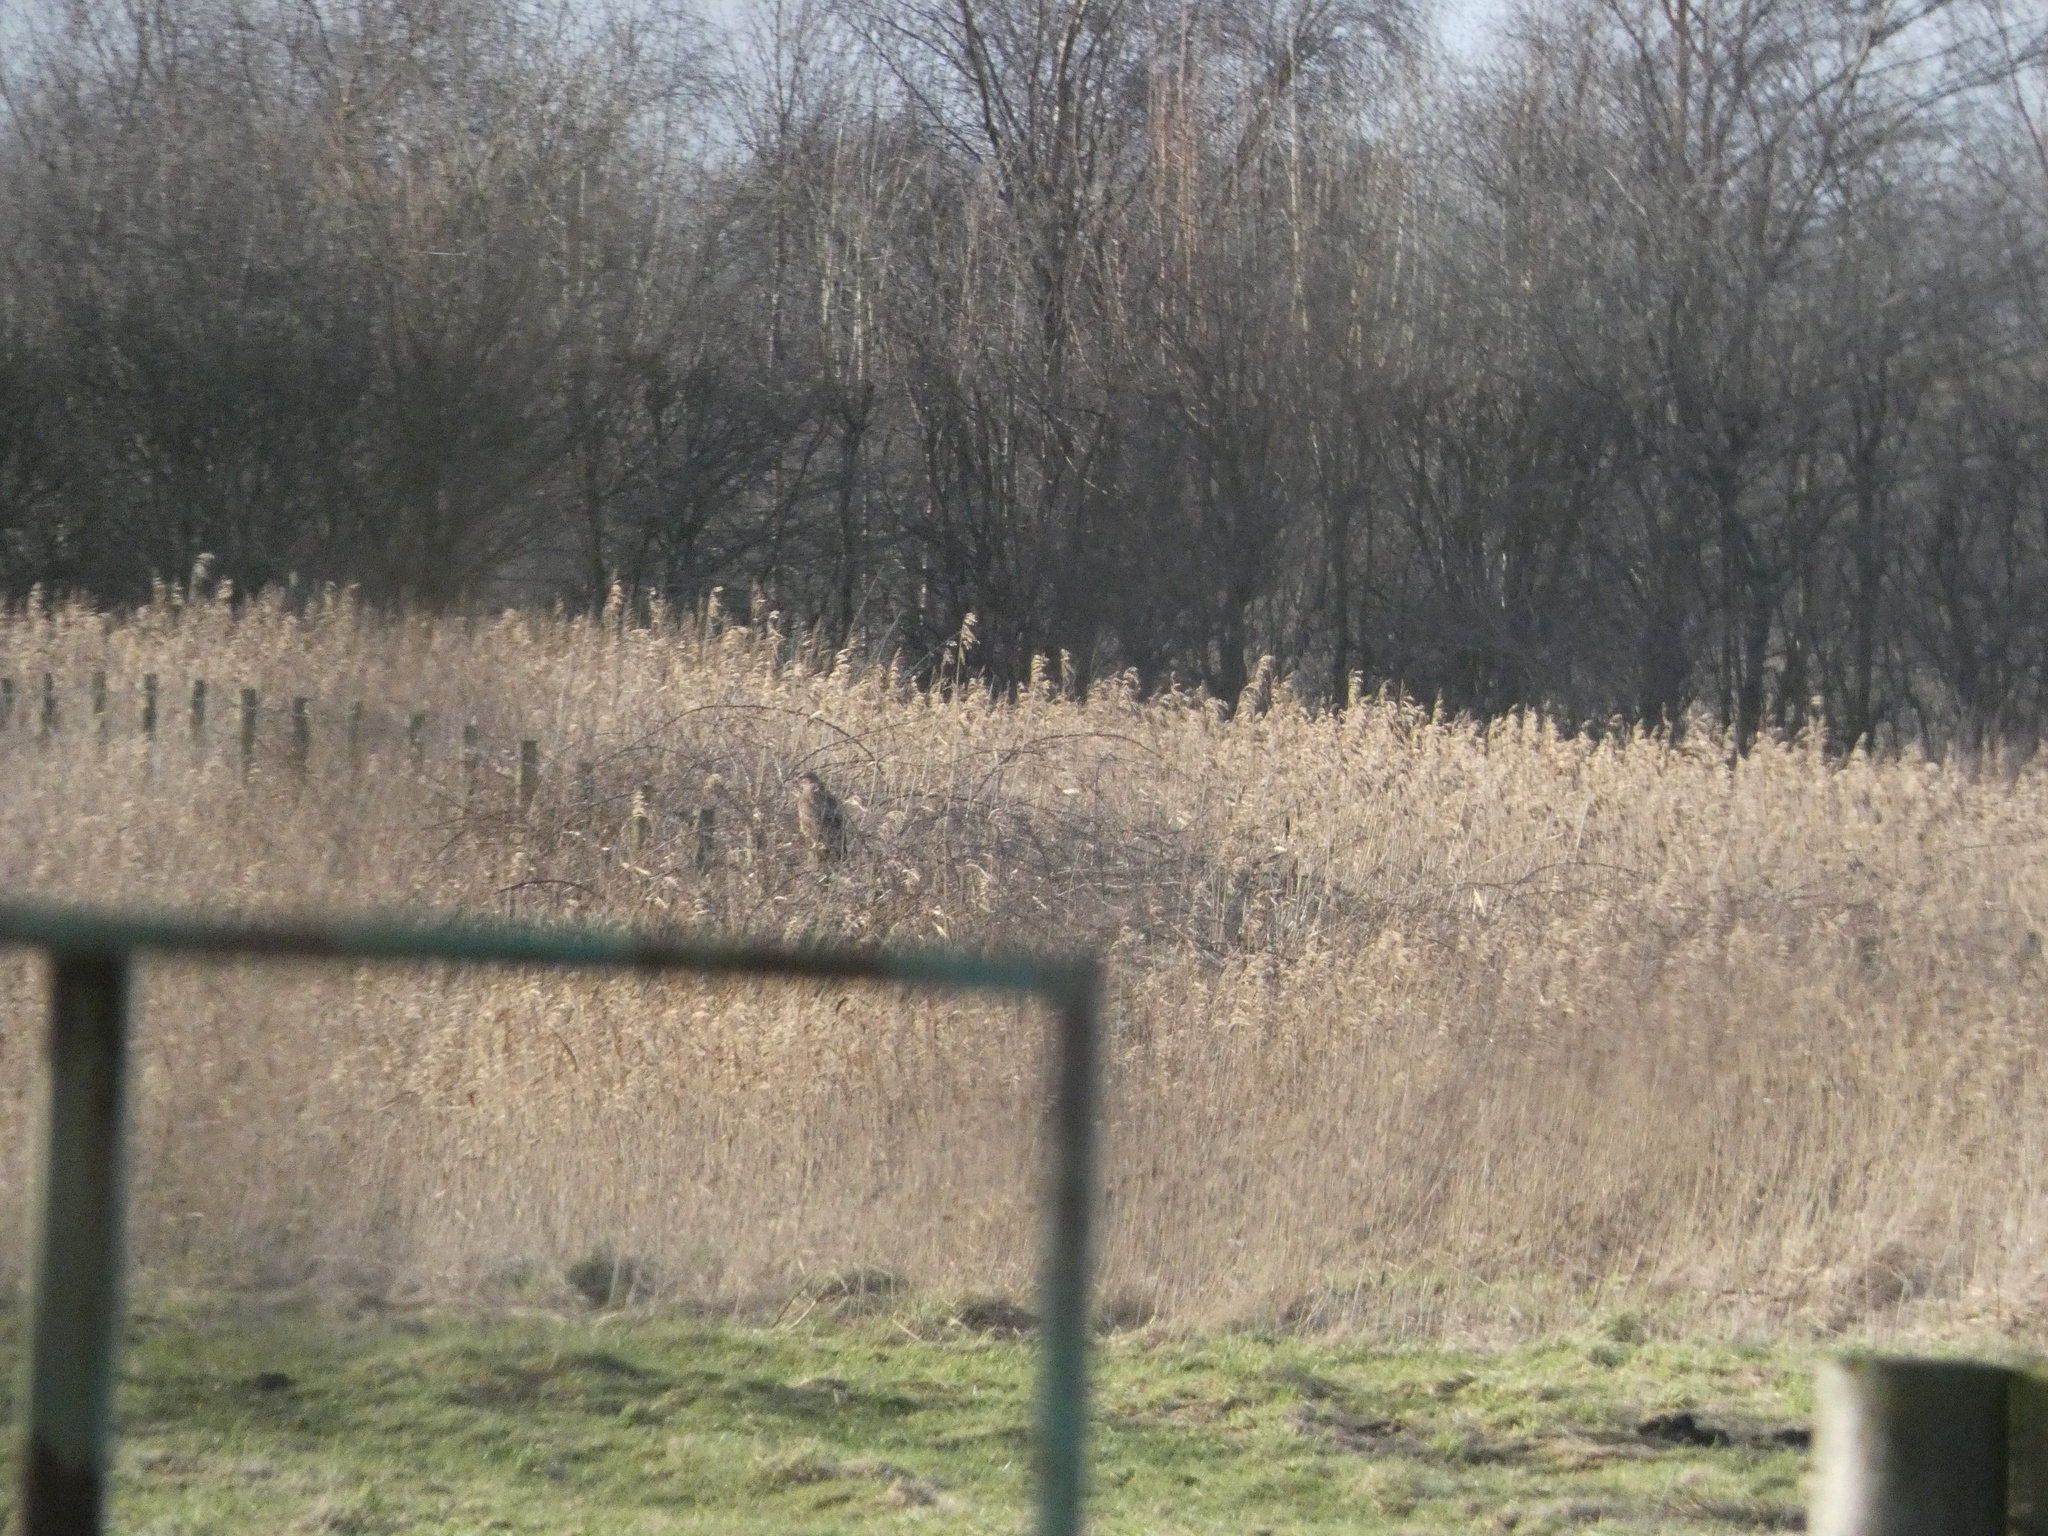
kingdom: Animalia
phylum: Chordata
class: Aves
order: Accipitriformes
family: Accipitridae
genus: Buteo
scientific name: Buteo buteo
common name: Common buzzard
